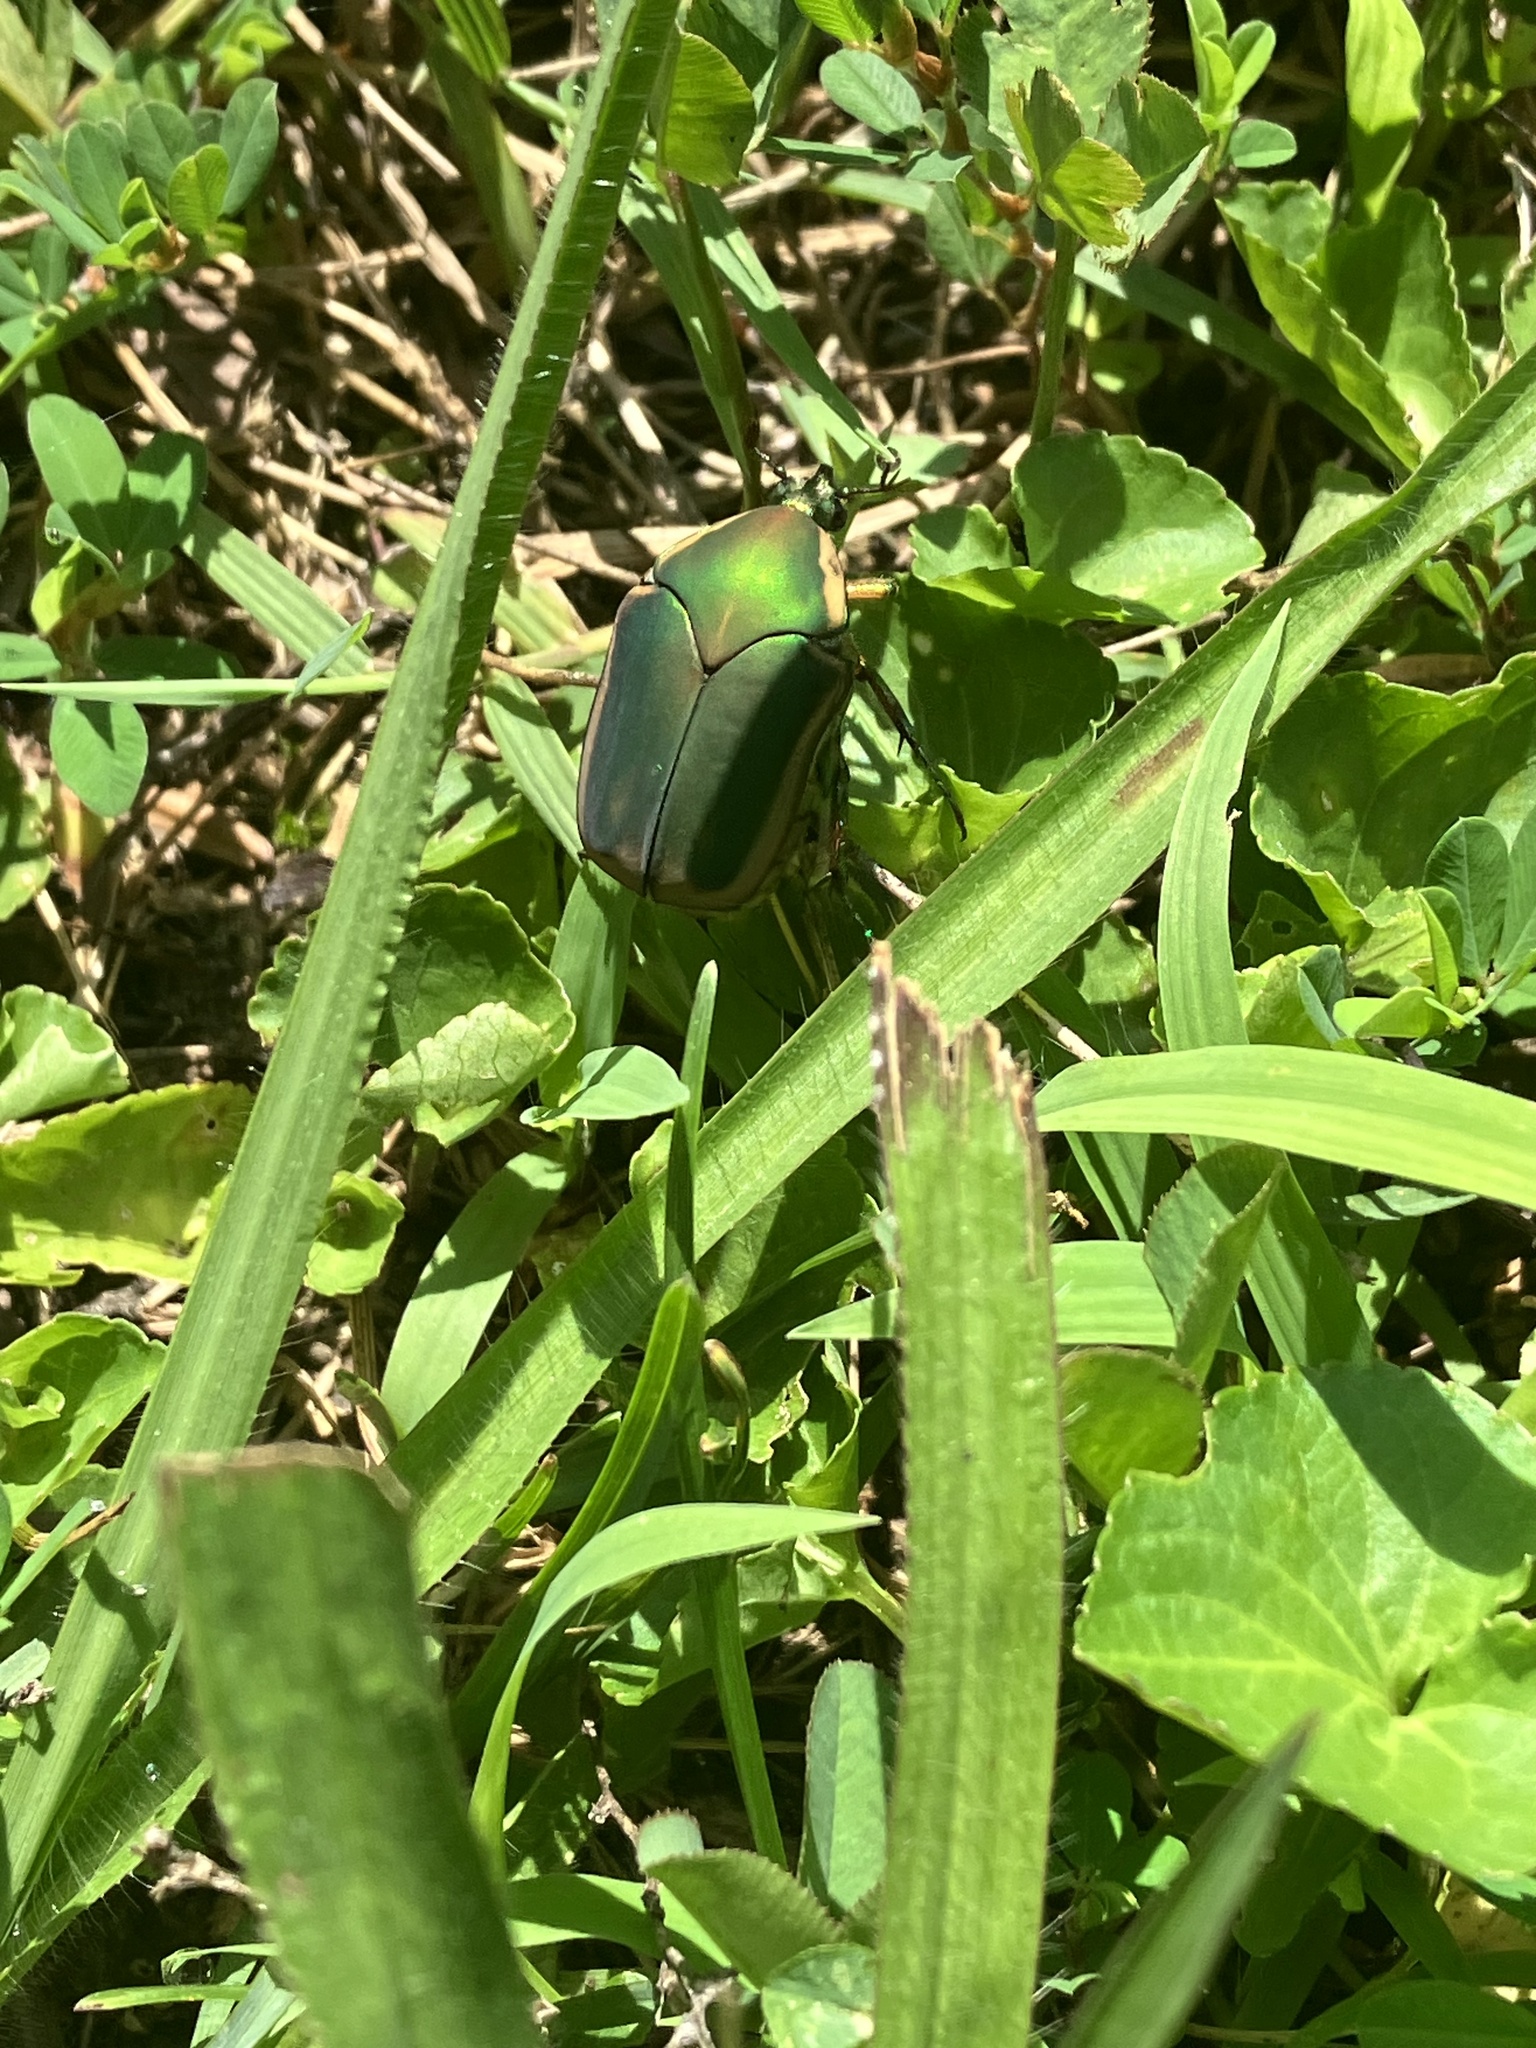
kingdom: Animalia
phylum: Arthropoda
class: Insecta
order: Coleoptera
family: Scarabaeidae
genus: Cotinis
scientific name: Cotinis nitida
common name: Common green june beetle
